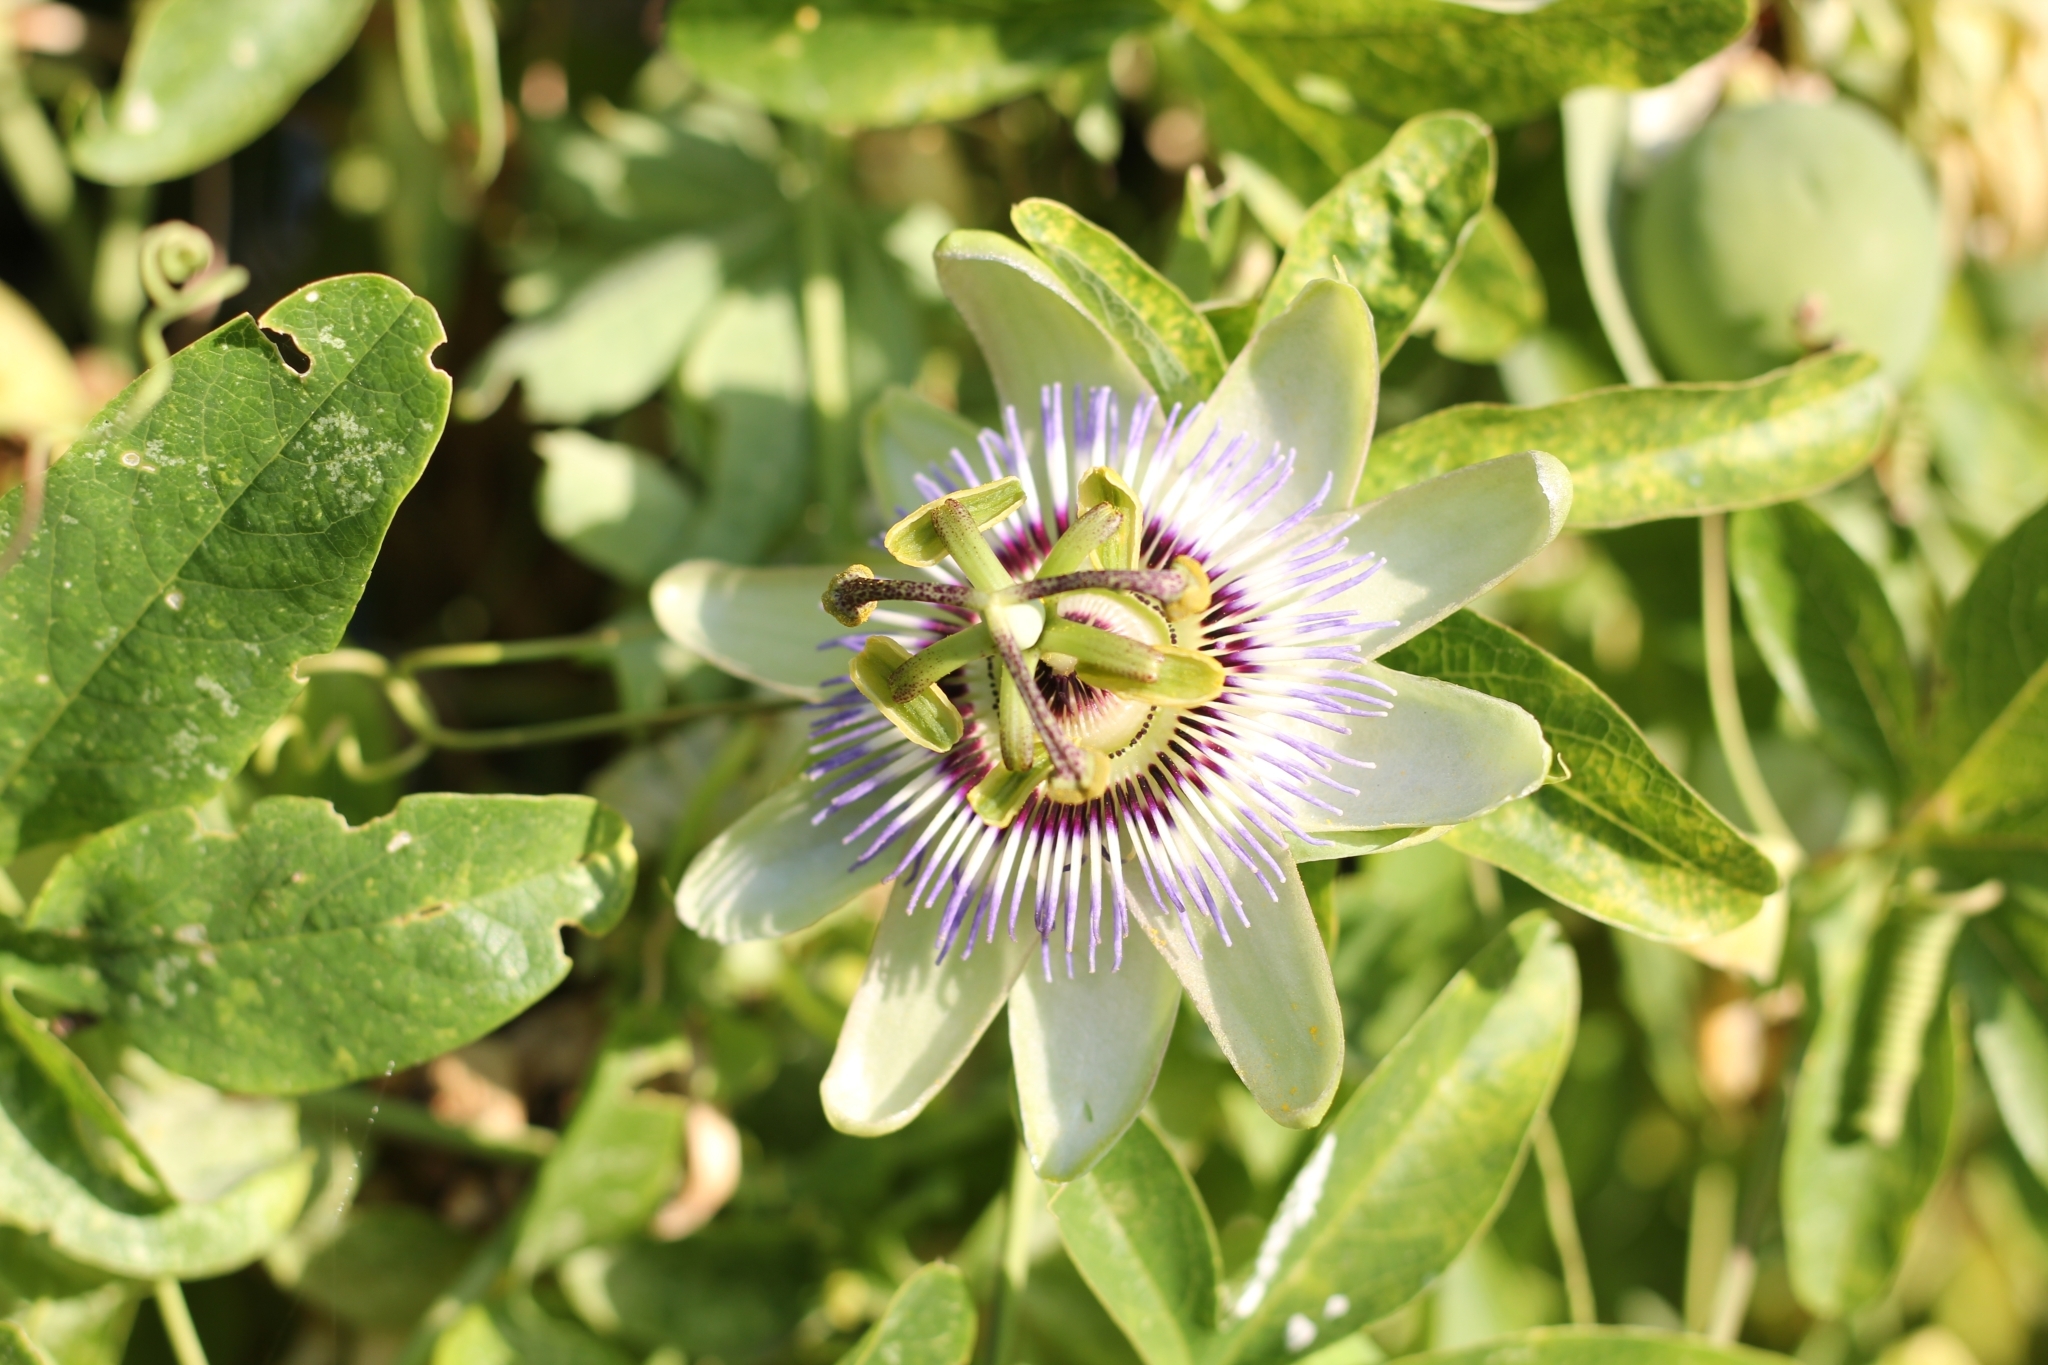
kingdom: Plantae
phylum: Tracheophyta
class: Magnoliopsida
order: Malpighiales
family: Passifloraceae
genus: Passiflora
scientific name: Passiflora caerulea
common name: Blue passionflower
